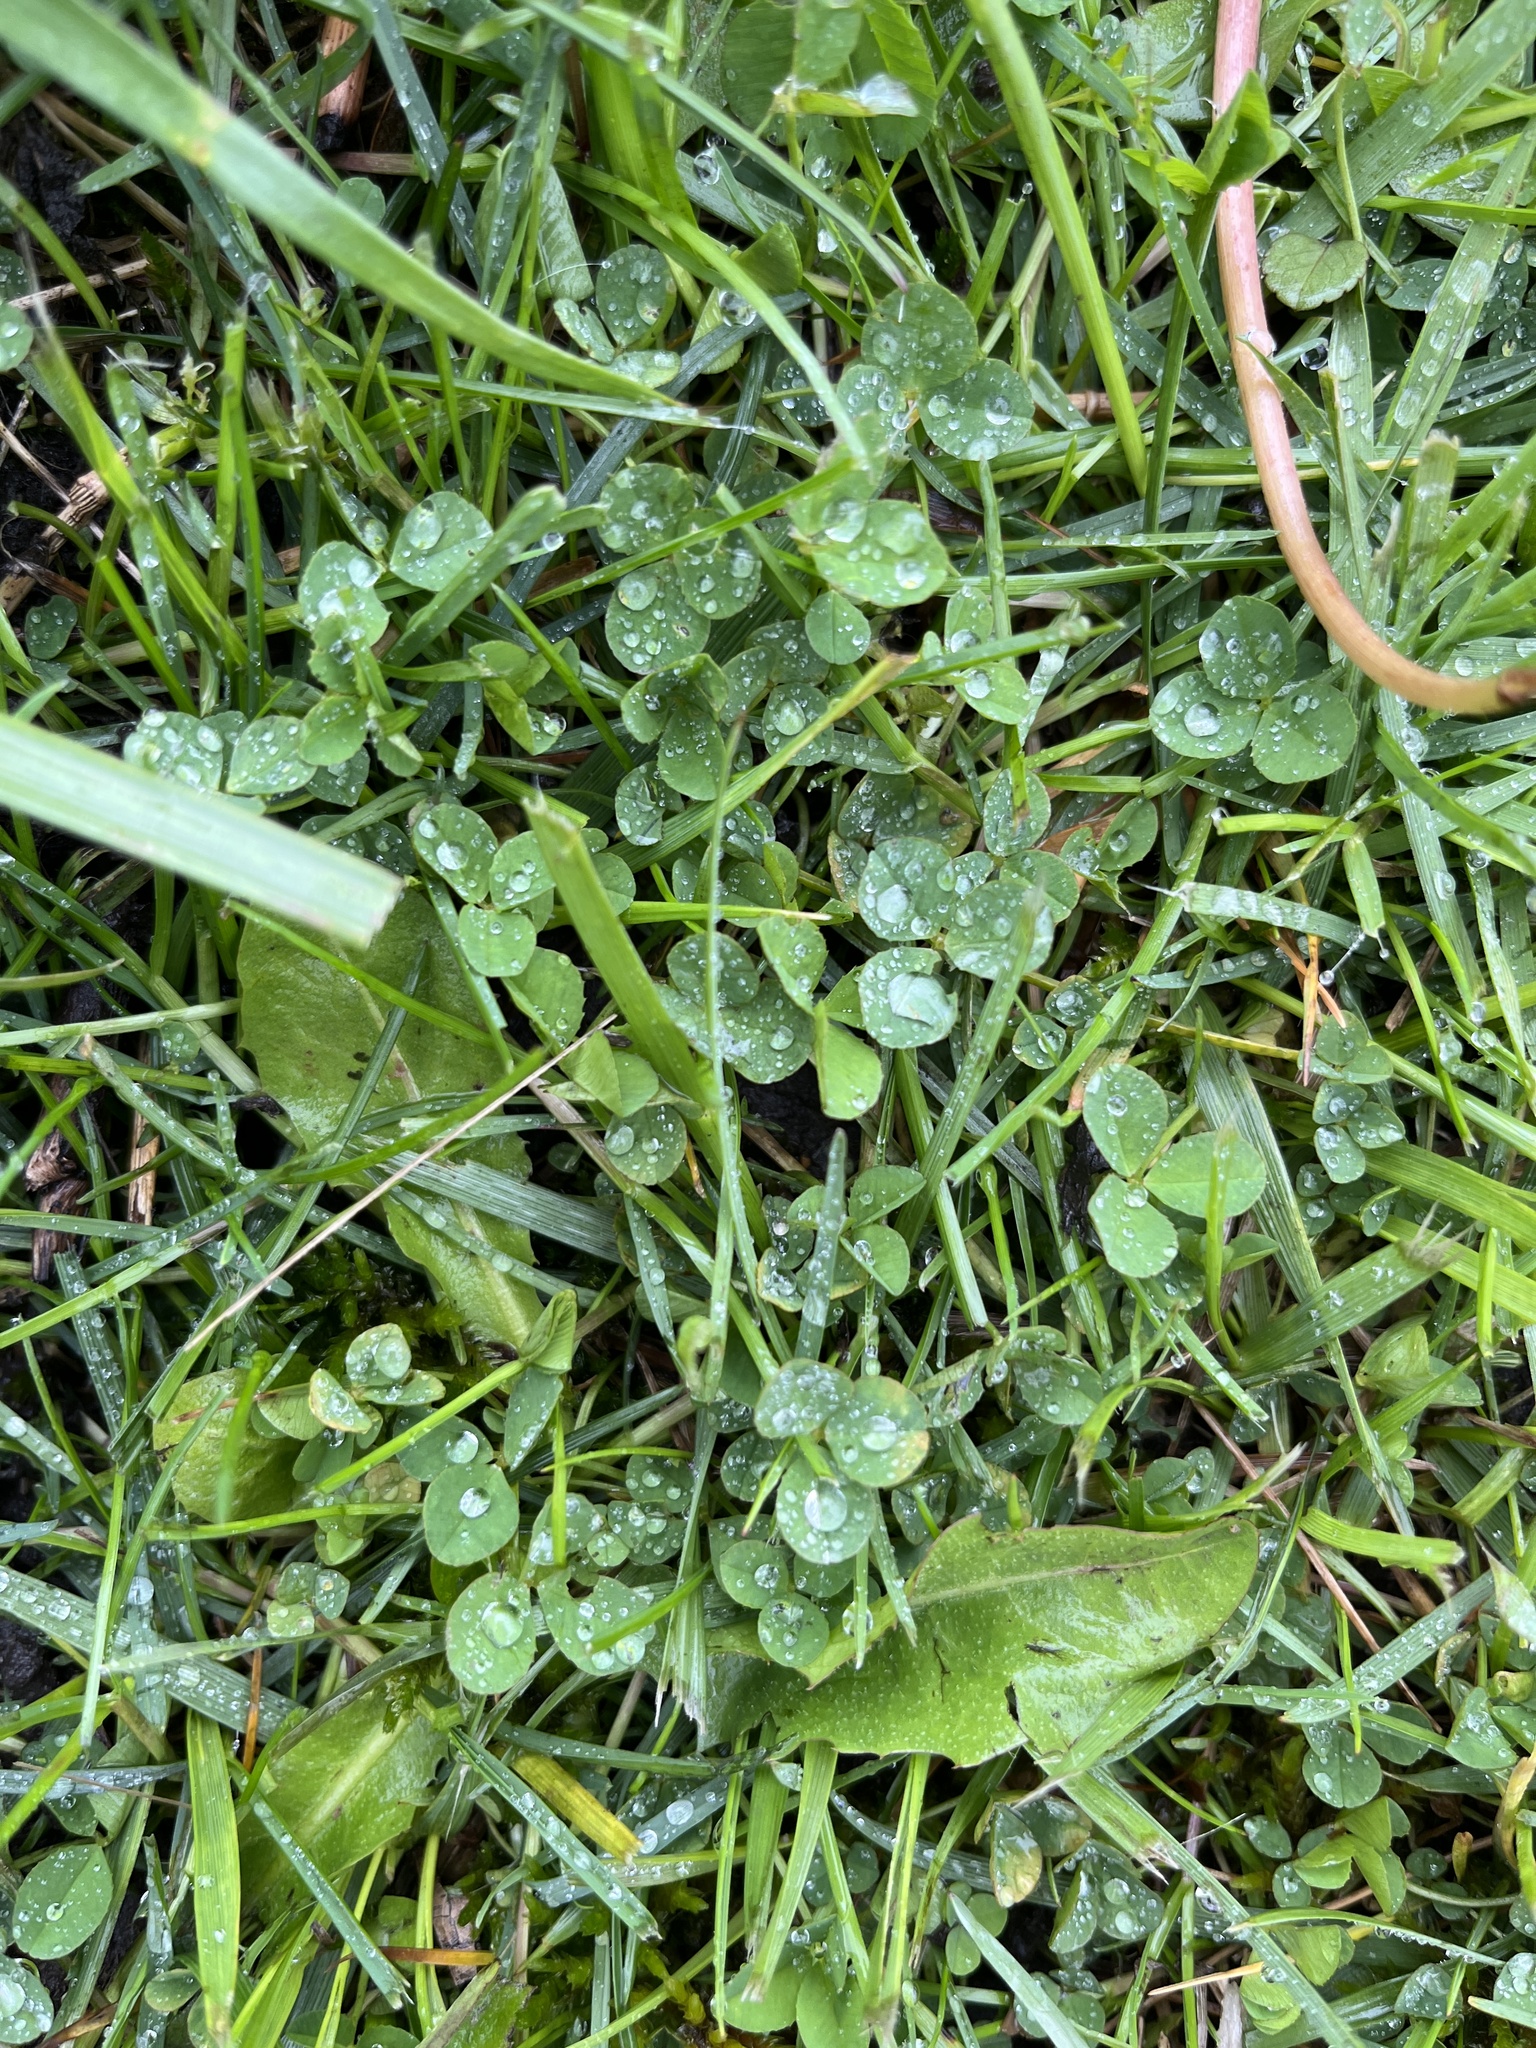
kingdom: Plantae
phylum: Tracheophyta
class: Magnoliopsida
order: Fabales
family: Fabaceae
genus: Trifolium
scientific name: Trifolium repens
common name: White clover
